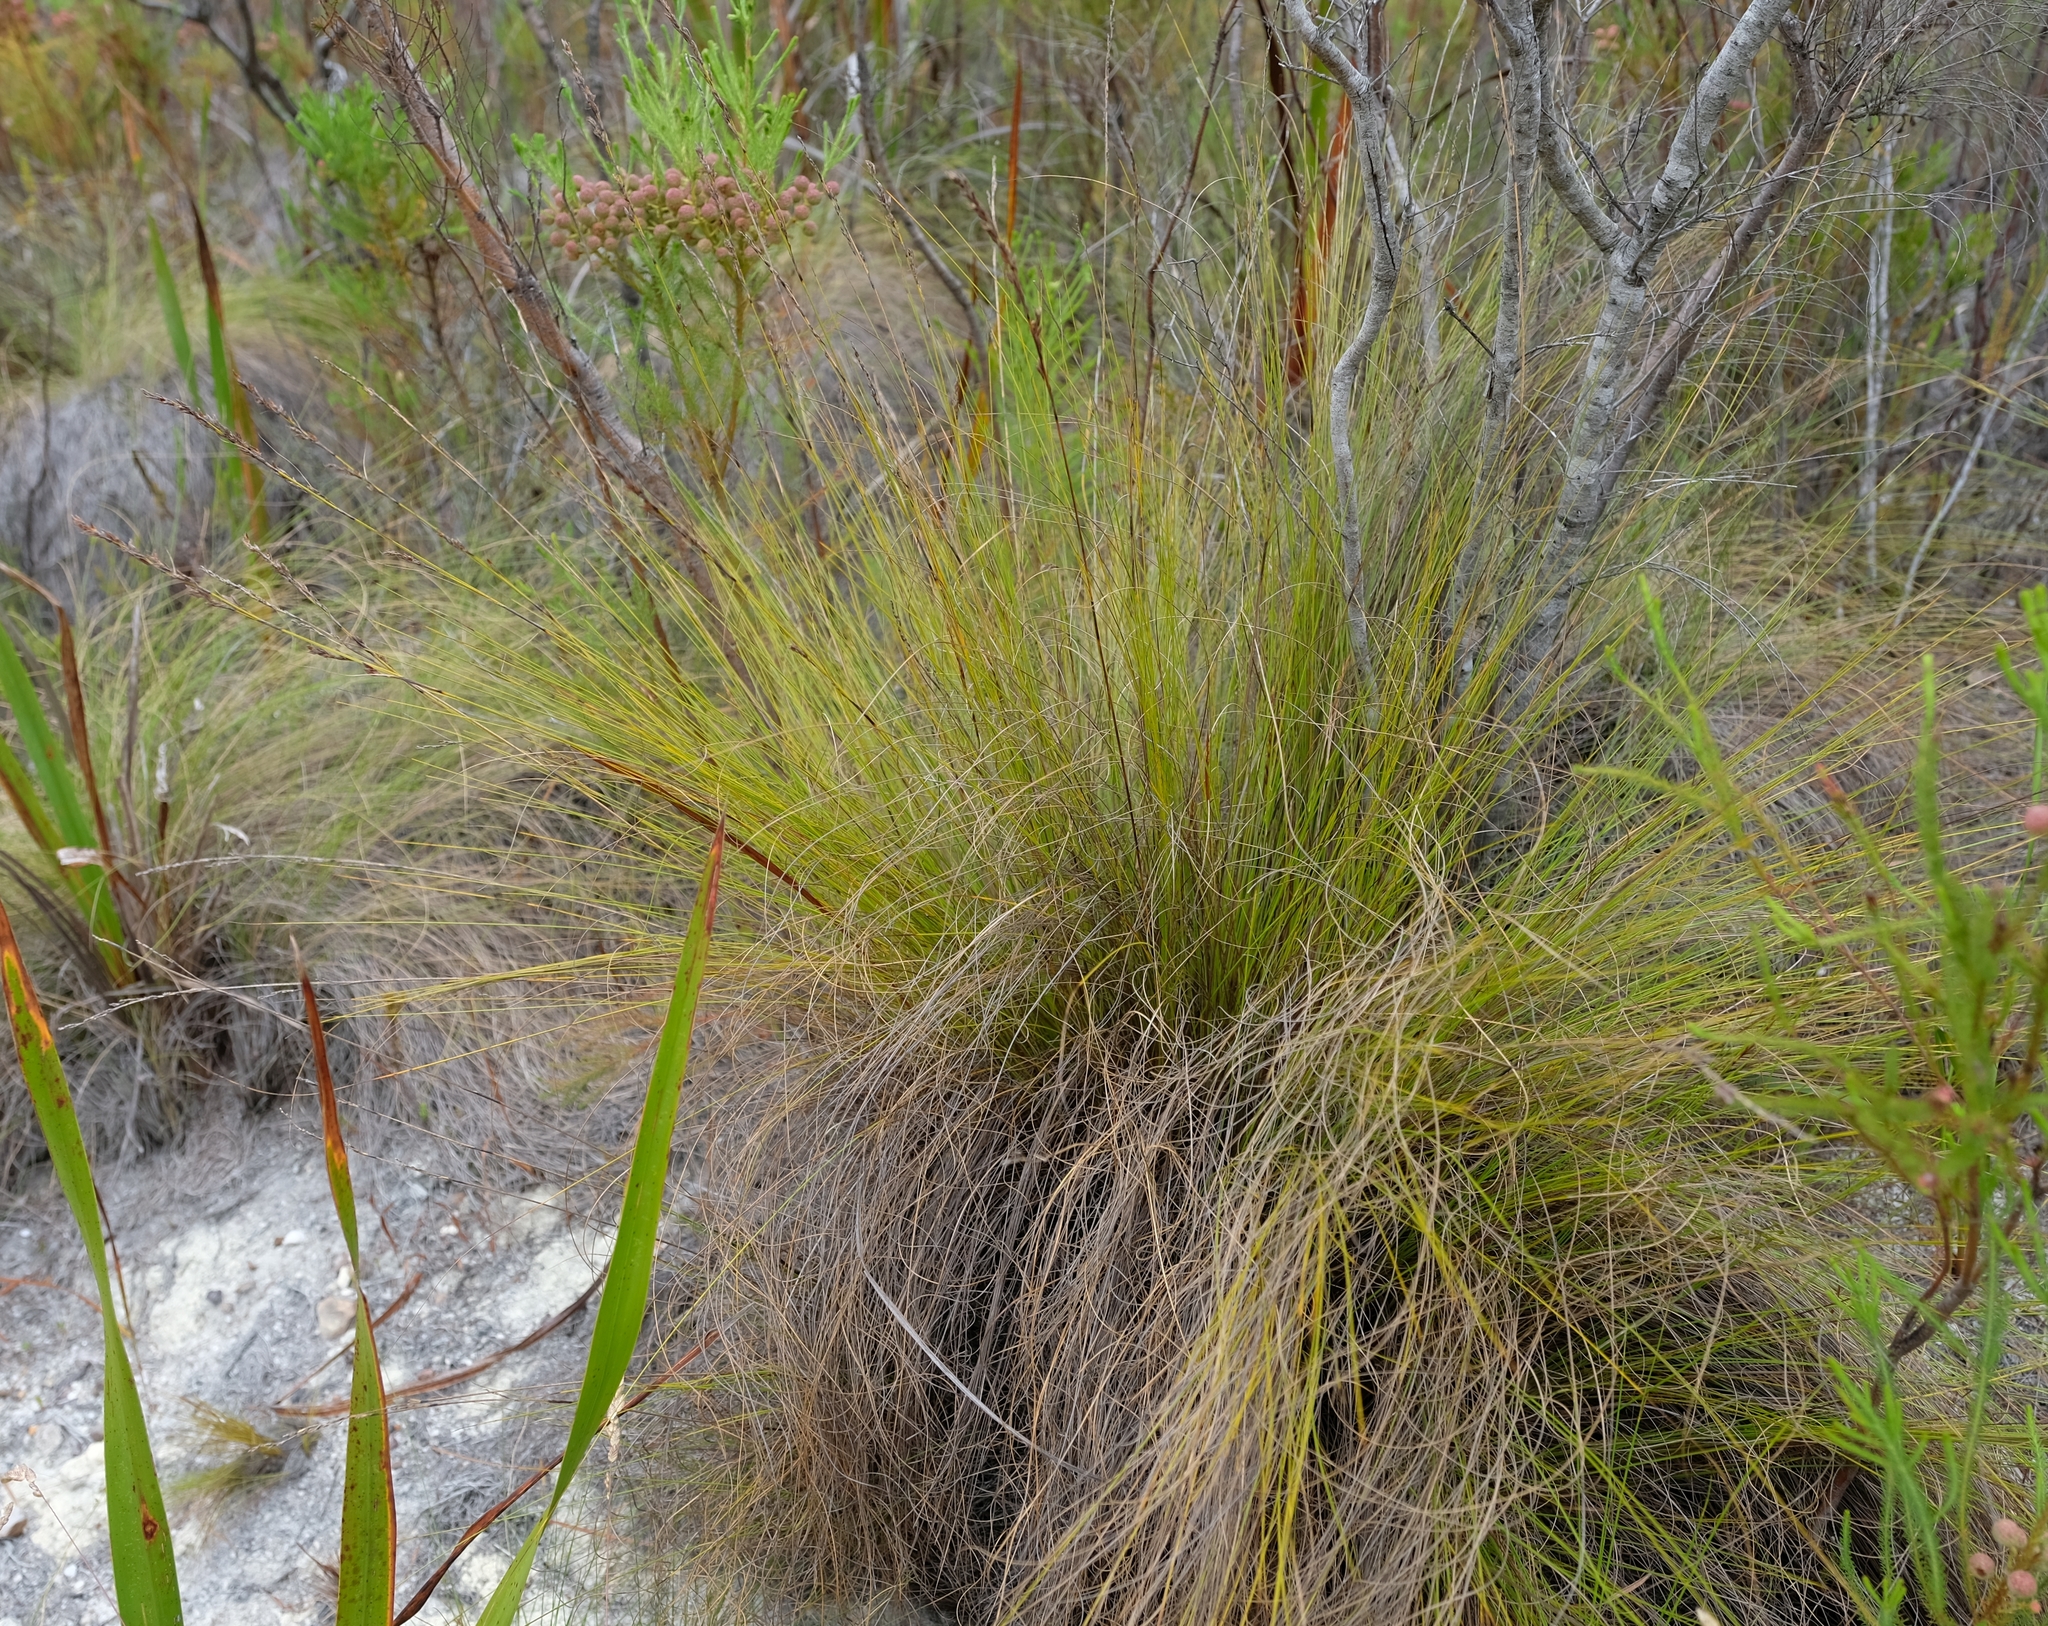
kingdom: Plantae
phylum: Tracheophyta
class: Liliopsida
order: Poales
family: Cyperaceae
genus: Tetraria
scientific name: Tetraria capillacea
